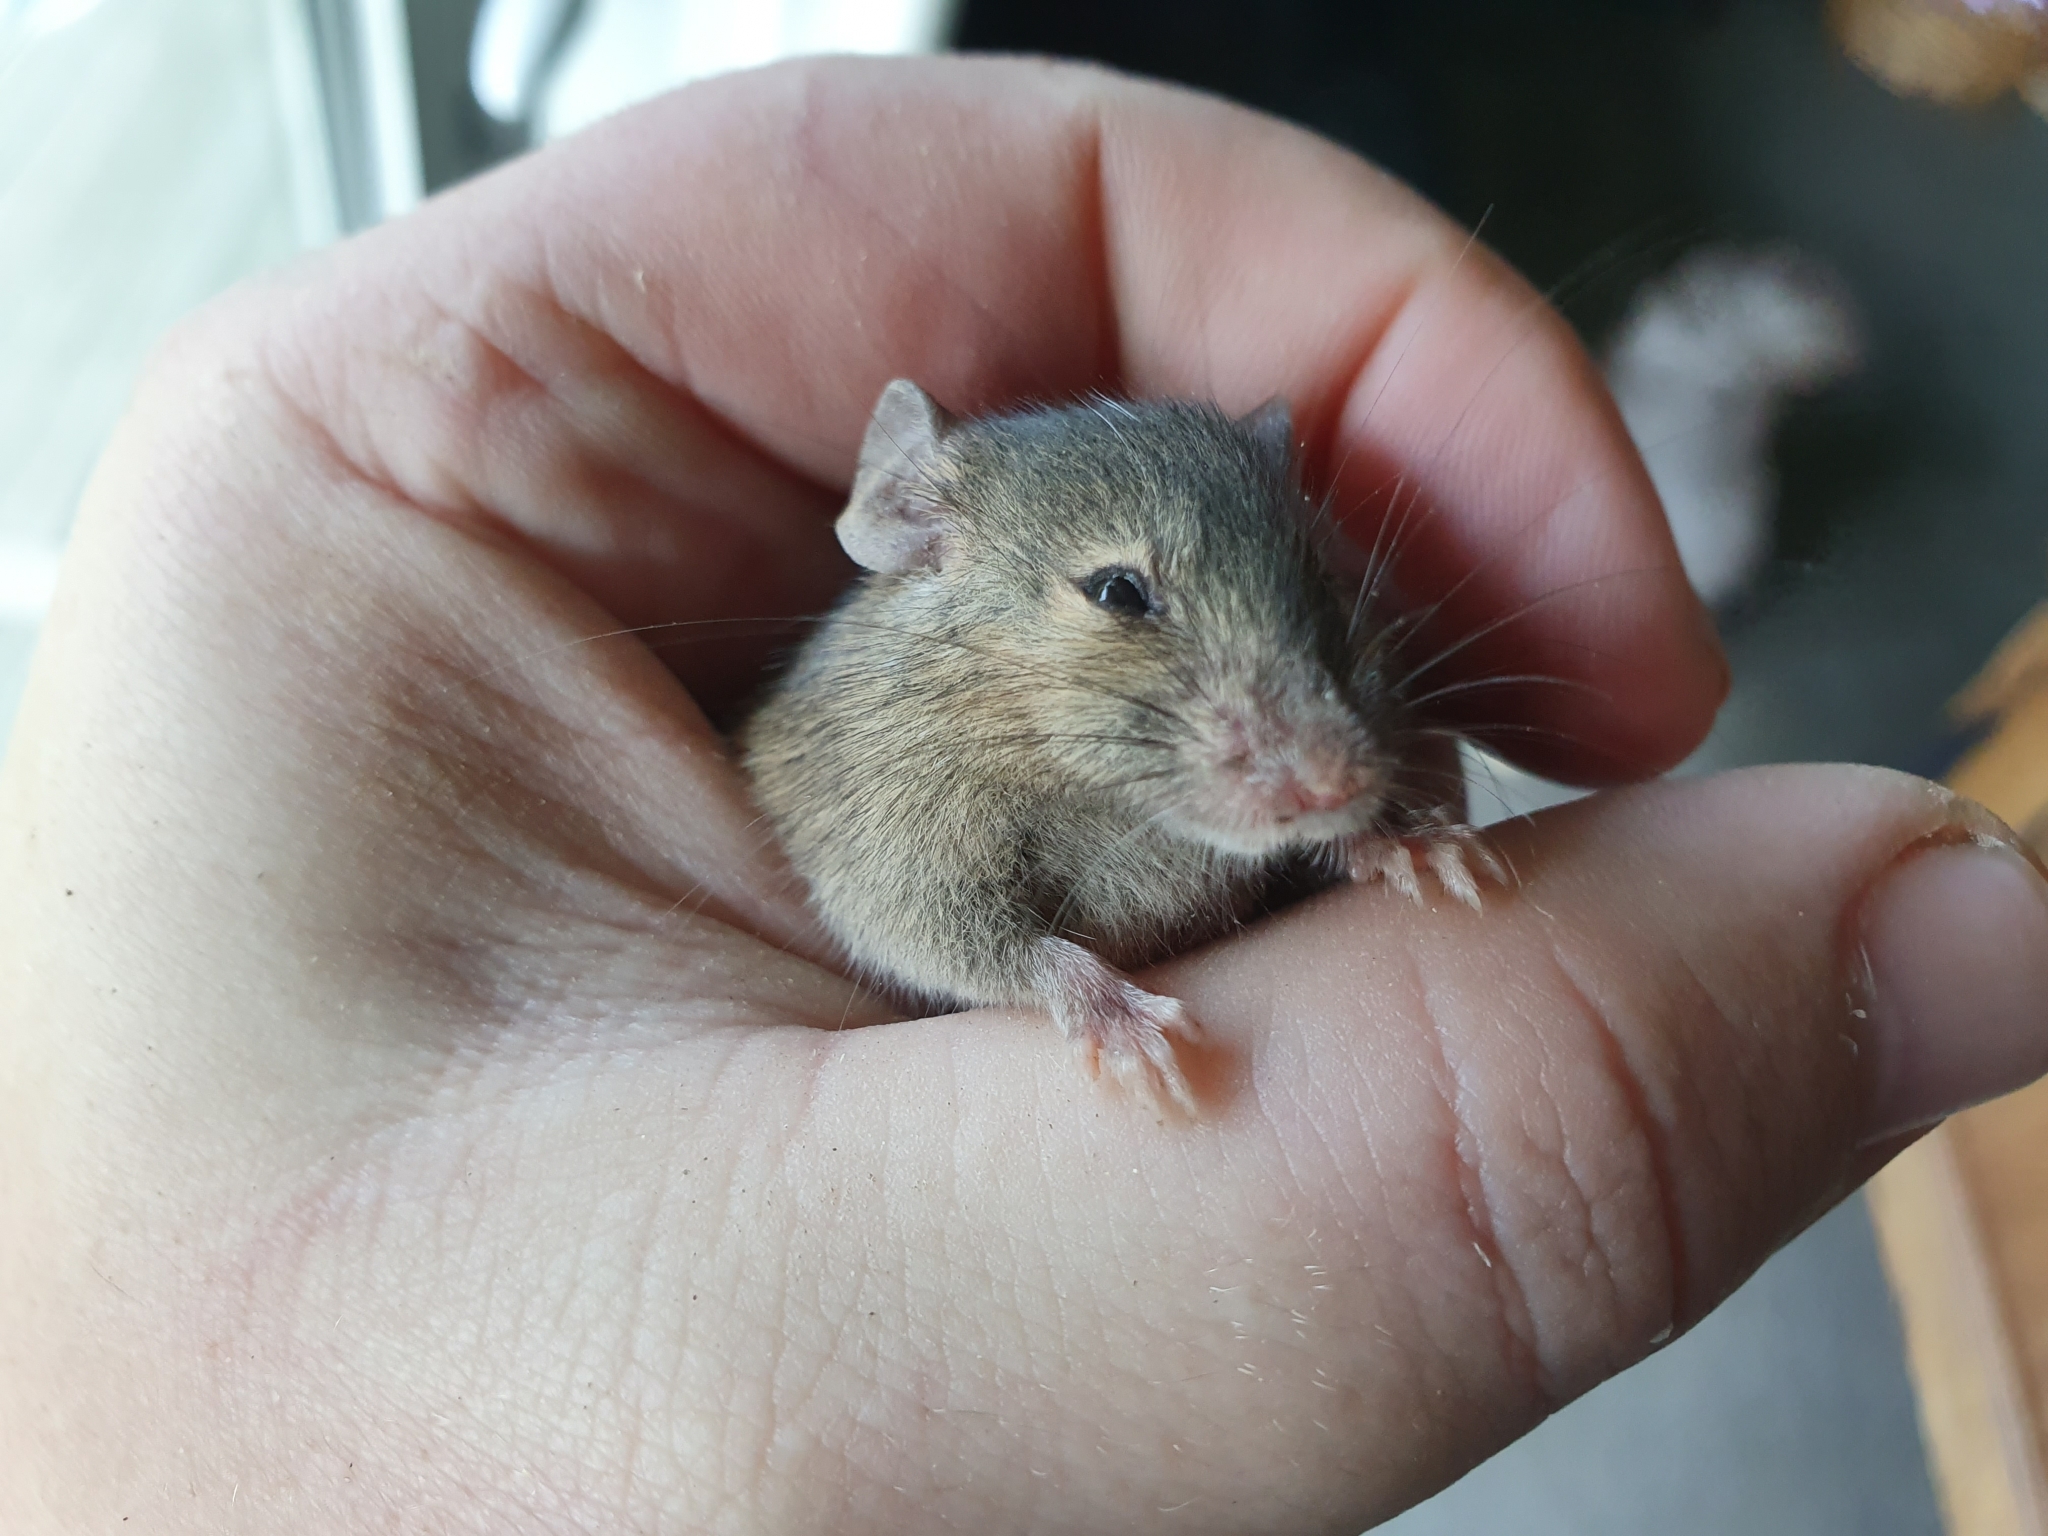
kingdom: Animalia
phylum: Chordata
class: Mammalia
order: Rodentia
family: Muridae
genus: Mus
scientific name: Mus musculus
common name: House mouse
